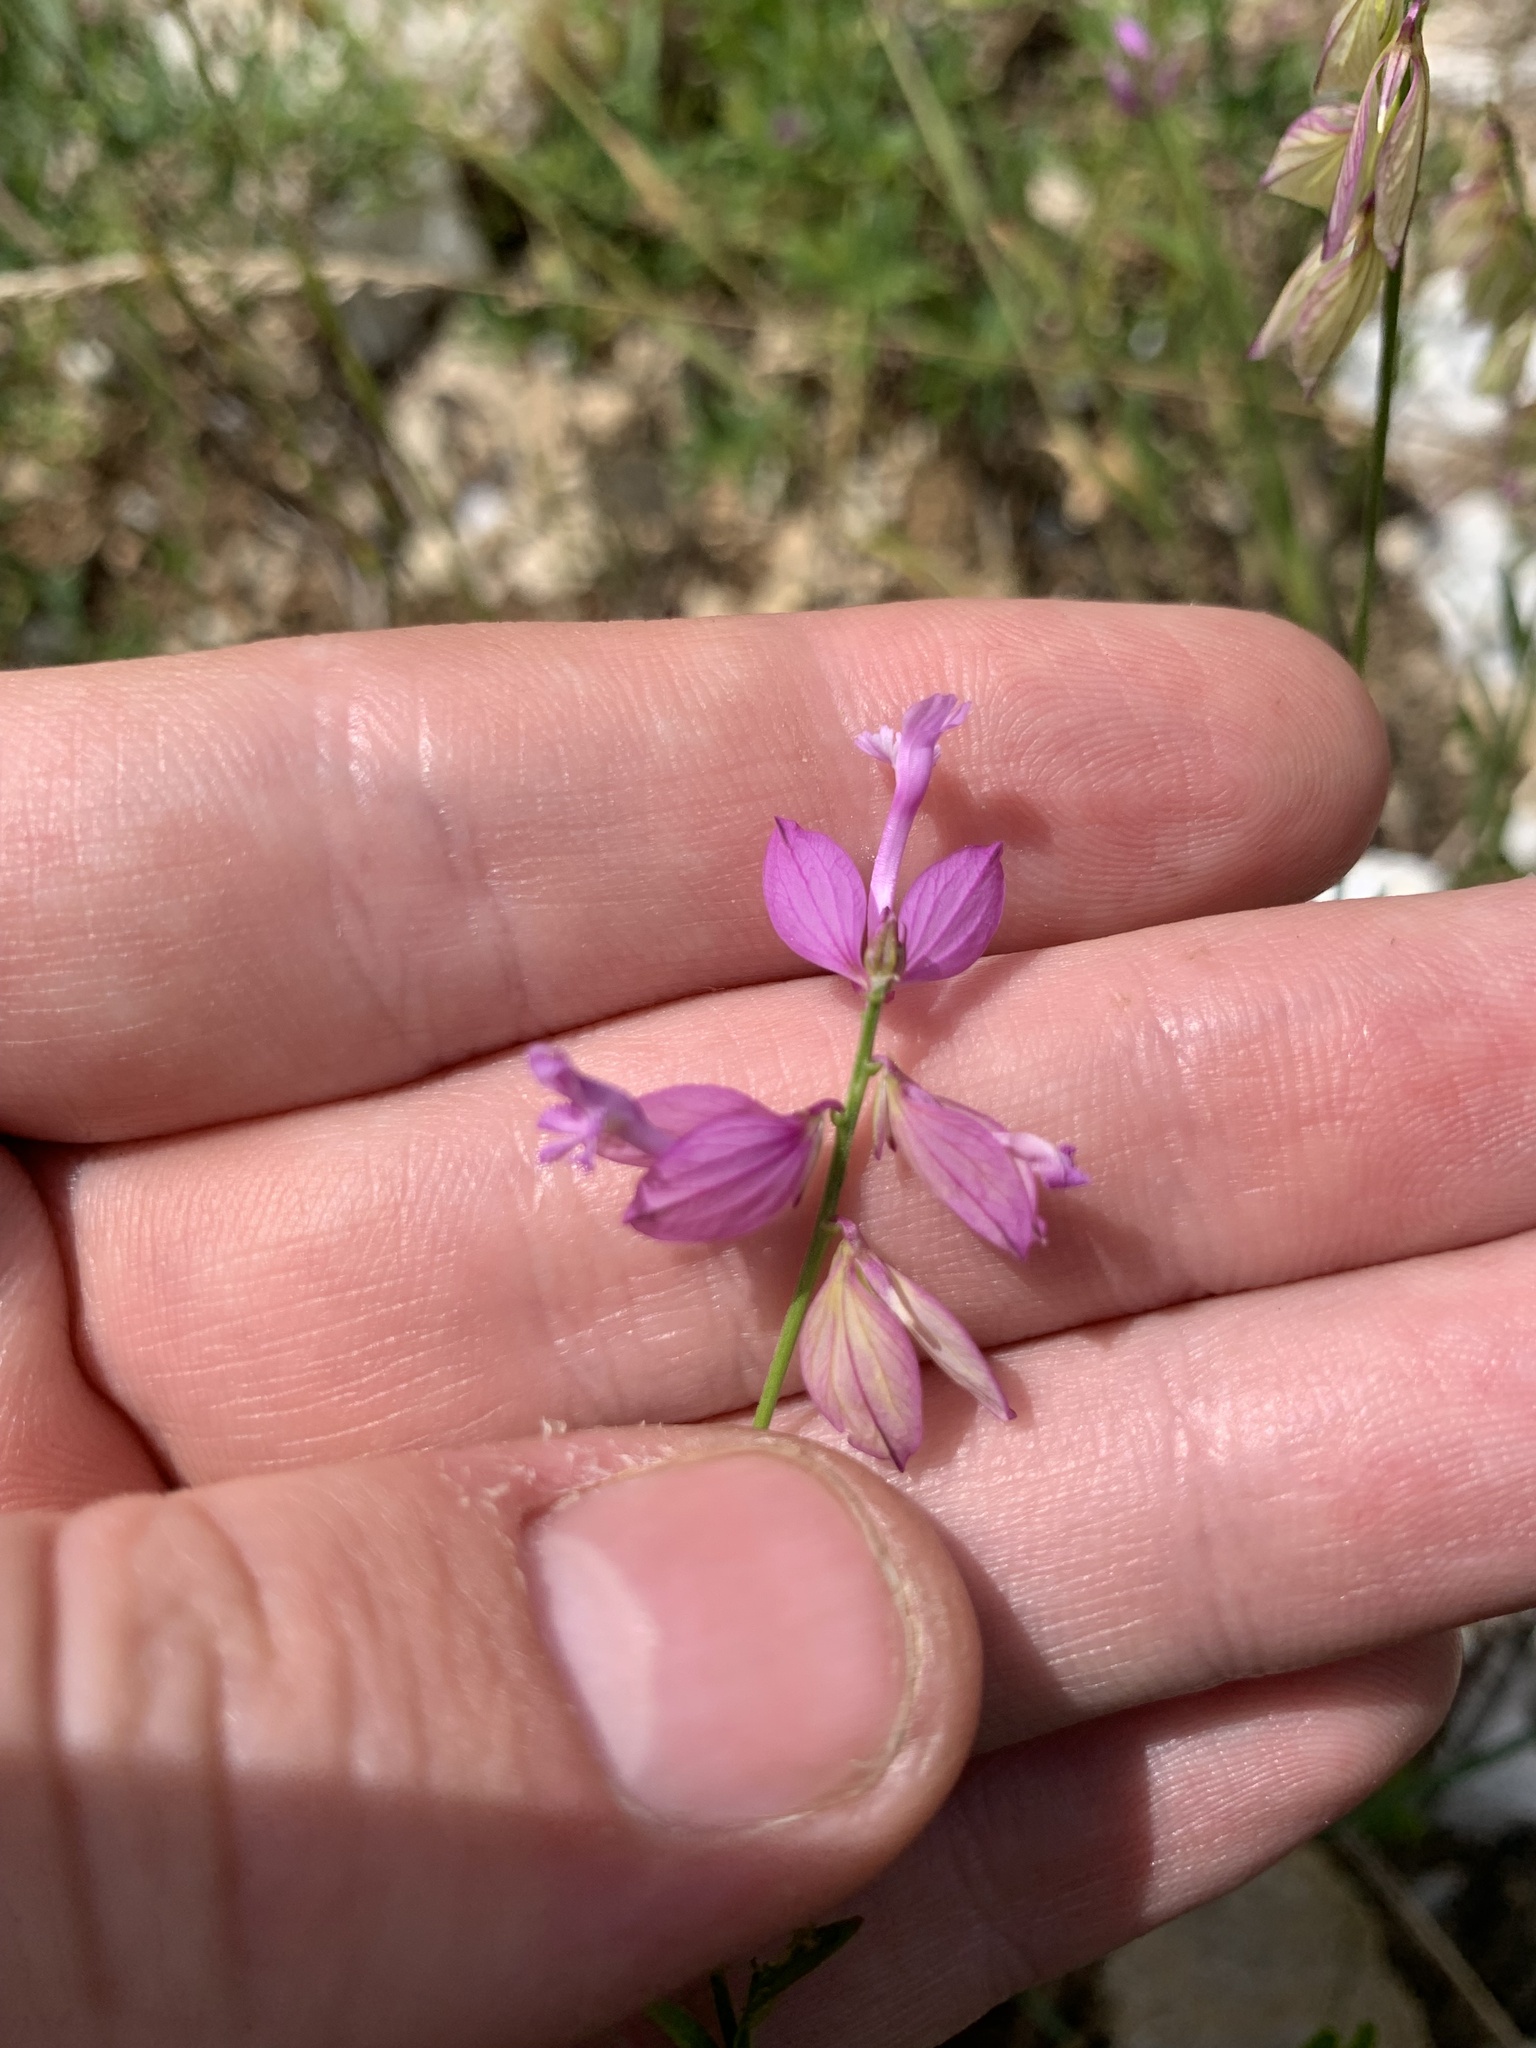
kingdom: Plantae
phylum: Tracheophyta
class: Magnoliopsida
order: Fabales
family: Polygalaceae
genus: Polygala
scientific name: Polygala major
